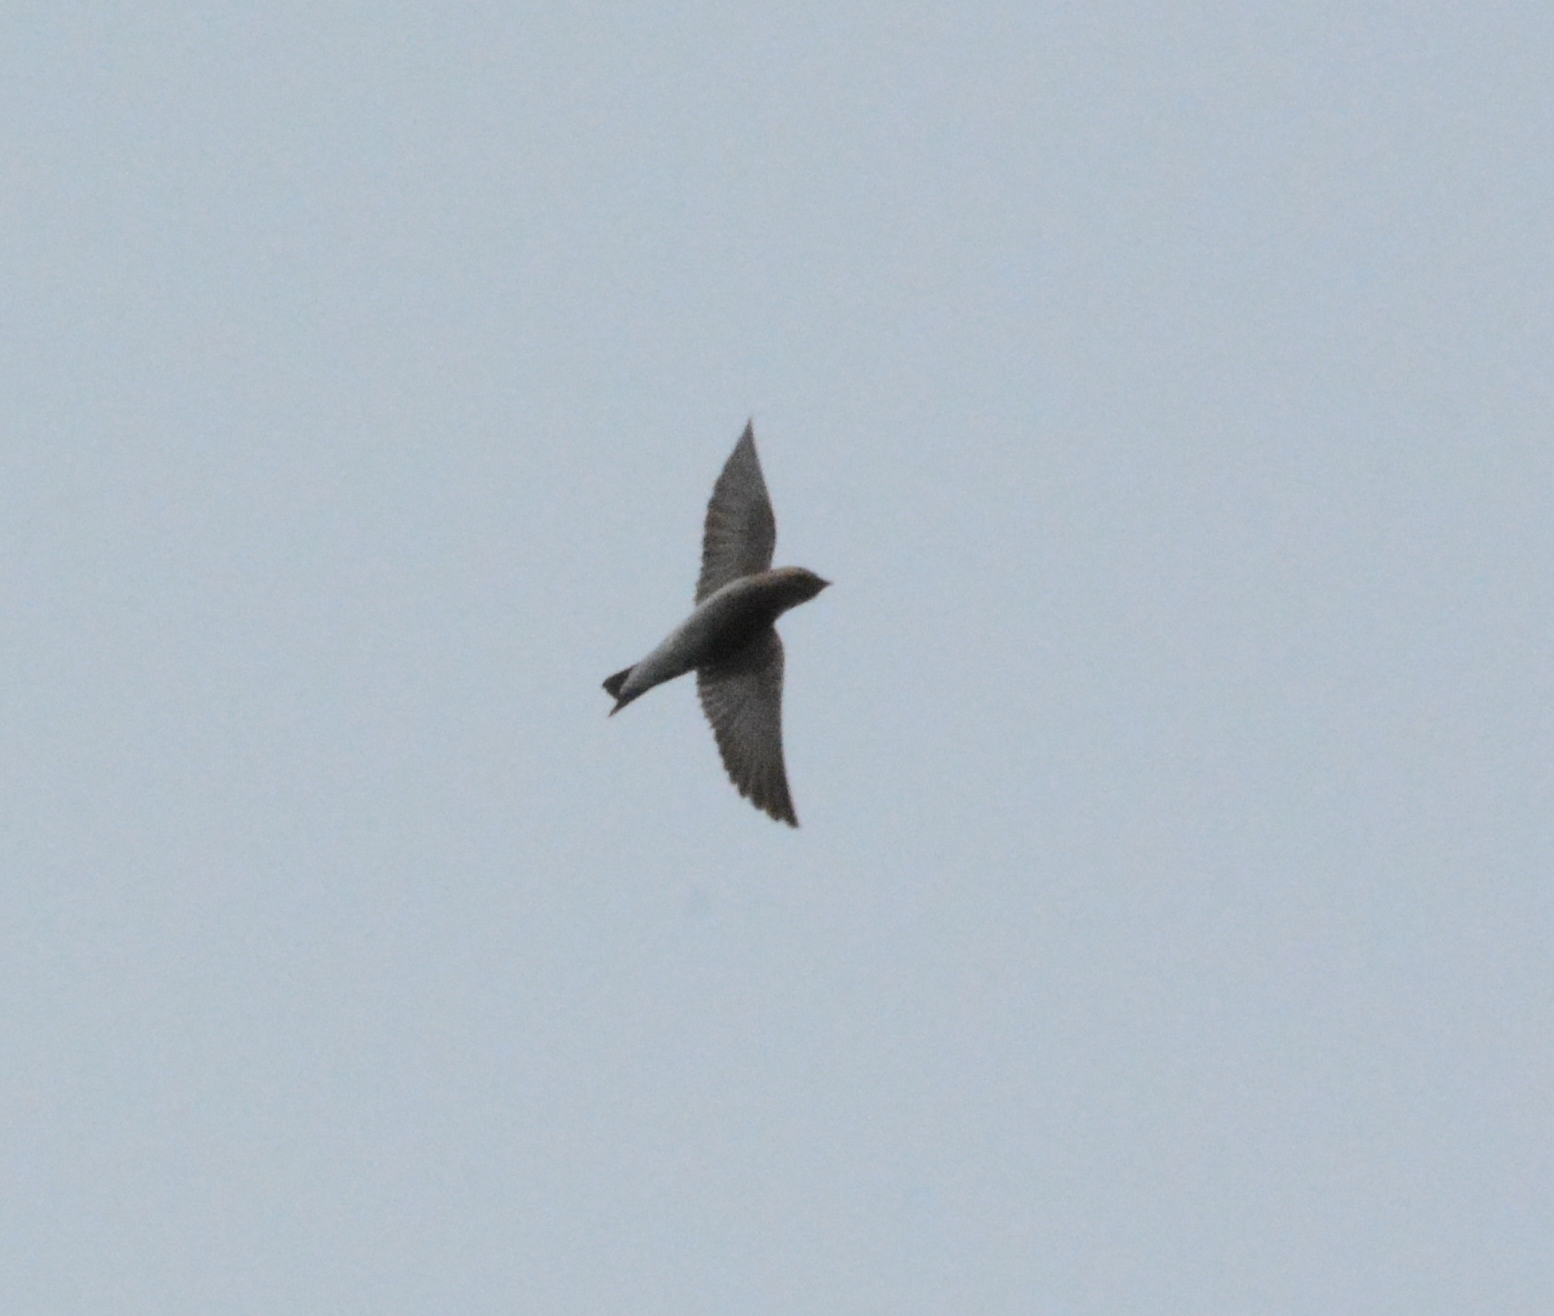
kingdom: Animalia
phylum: Chordata
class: Aves
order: Passeriformes
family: Hirundinidae
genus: Stelgidopteryx
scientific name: Stelgidopteryx serripennis
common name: Northern rough-winged swallow
